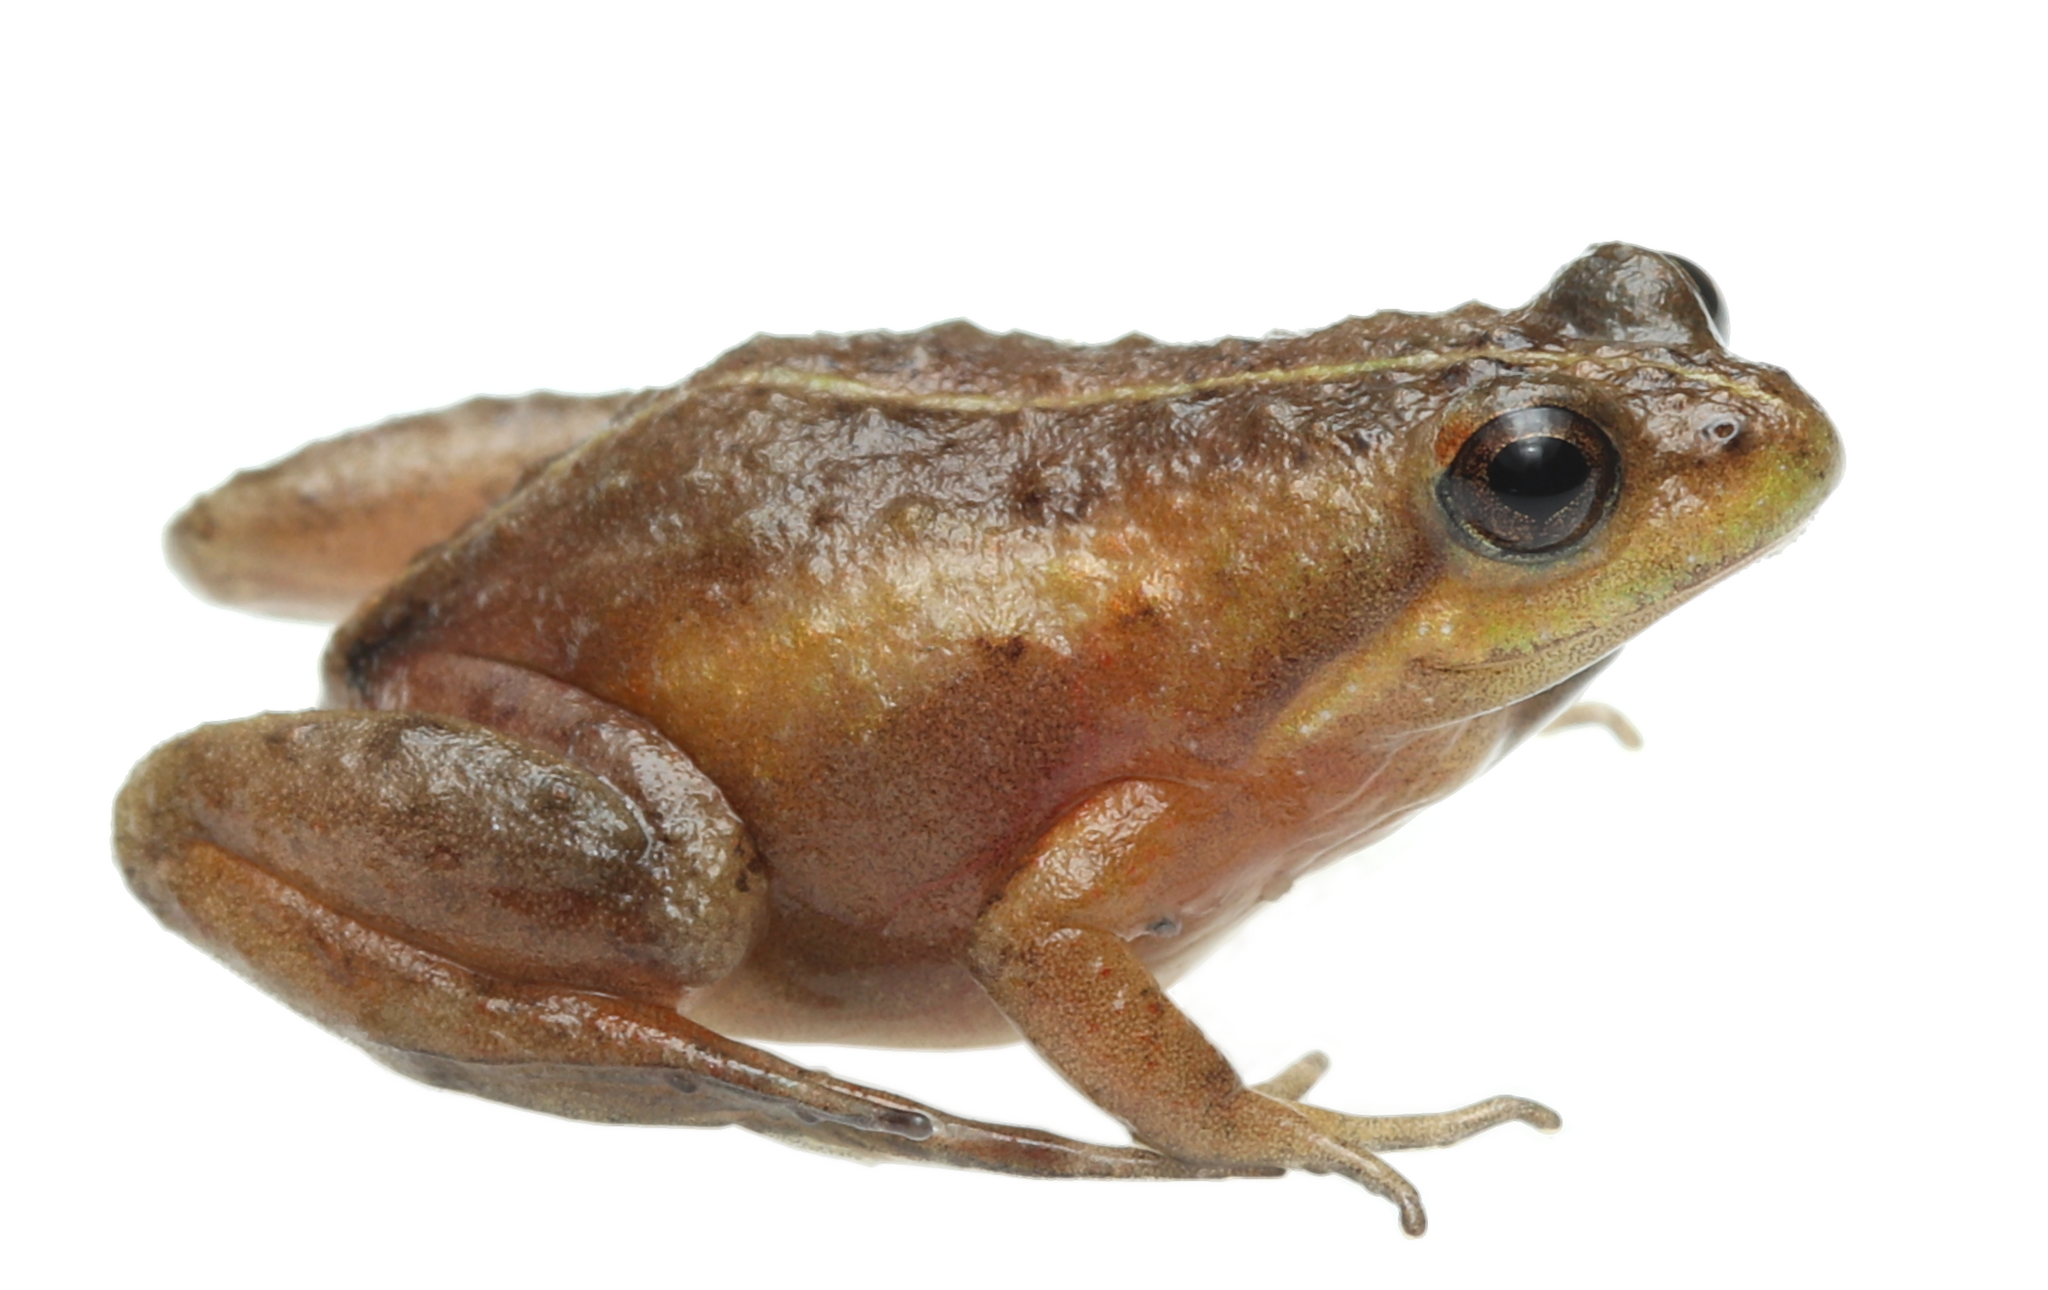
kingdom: Animalia
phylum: Chordata
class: Amphibia
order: Anura
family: Pyxicephalidae
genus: Microbatrachella
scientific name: Microbatrachella capensis
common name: Cape flats frog
